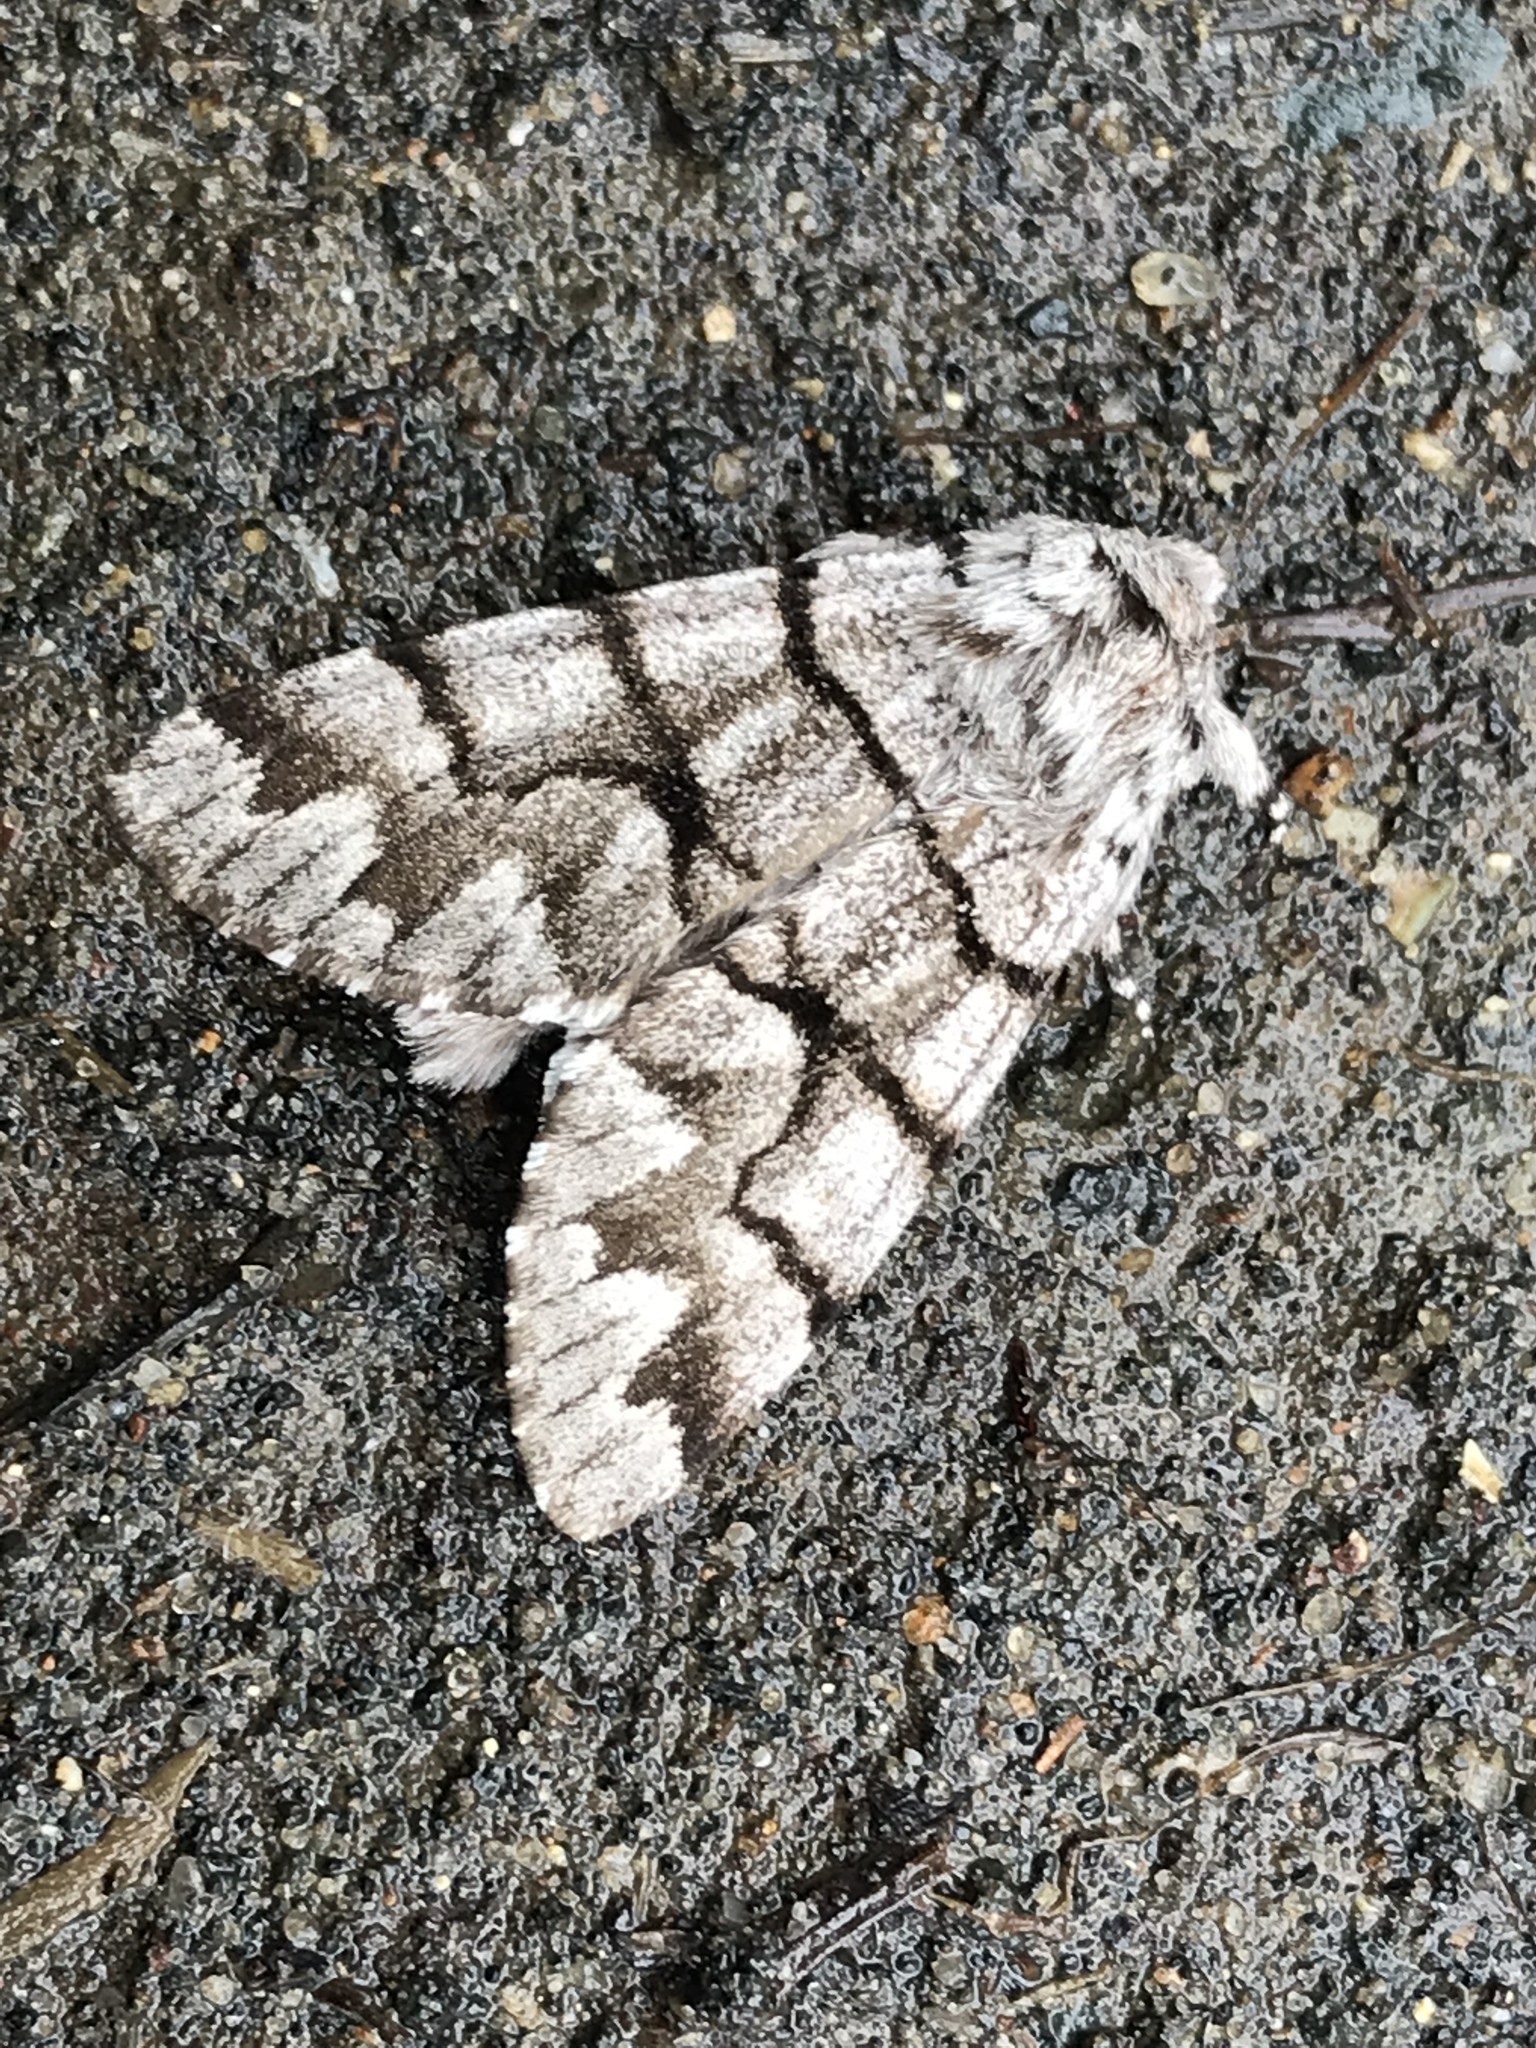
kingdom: Animalia
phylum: Arthropoda
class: Insecta
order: Lepidoptera
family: Noctuidae
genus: Panthea
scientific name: Panthea furcilla
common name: Eastern panthea moth
